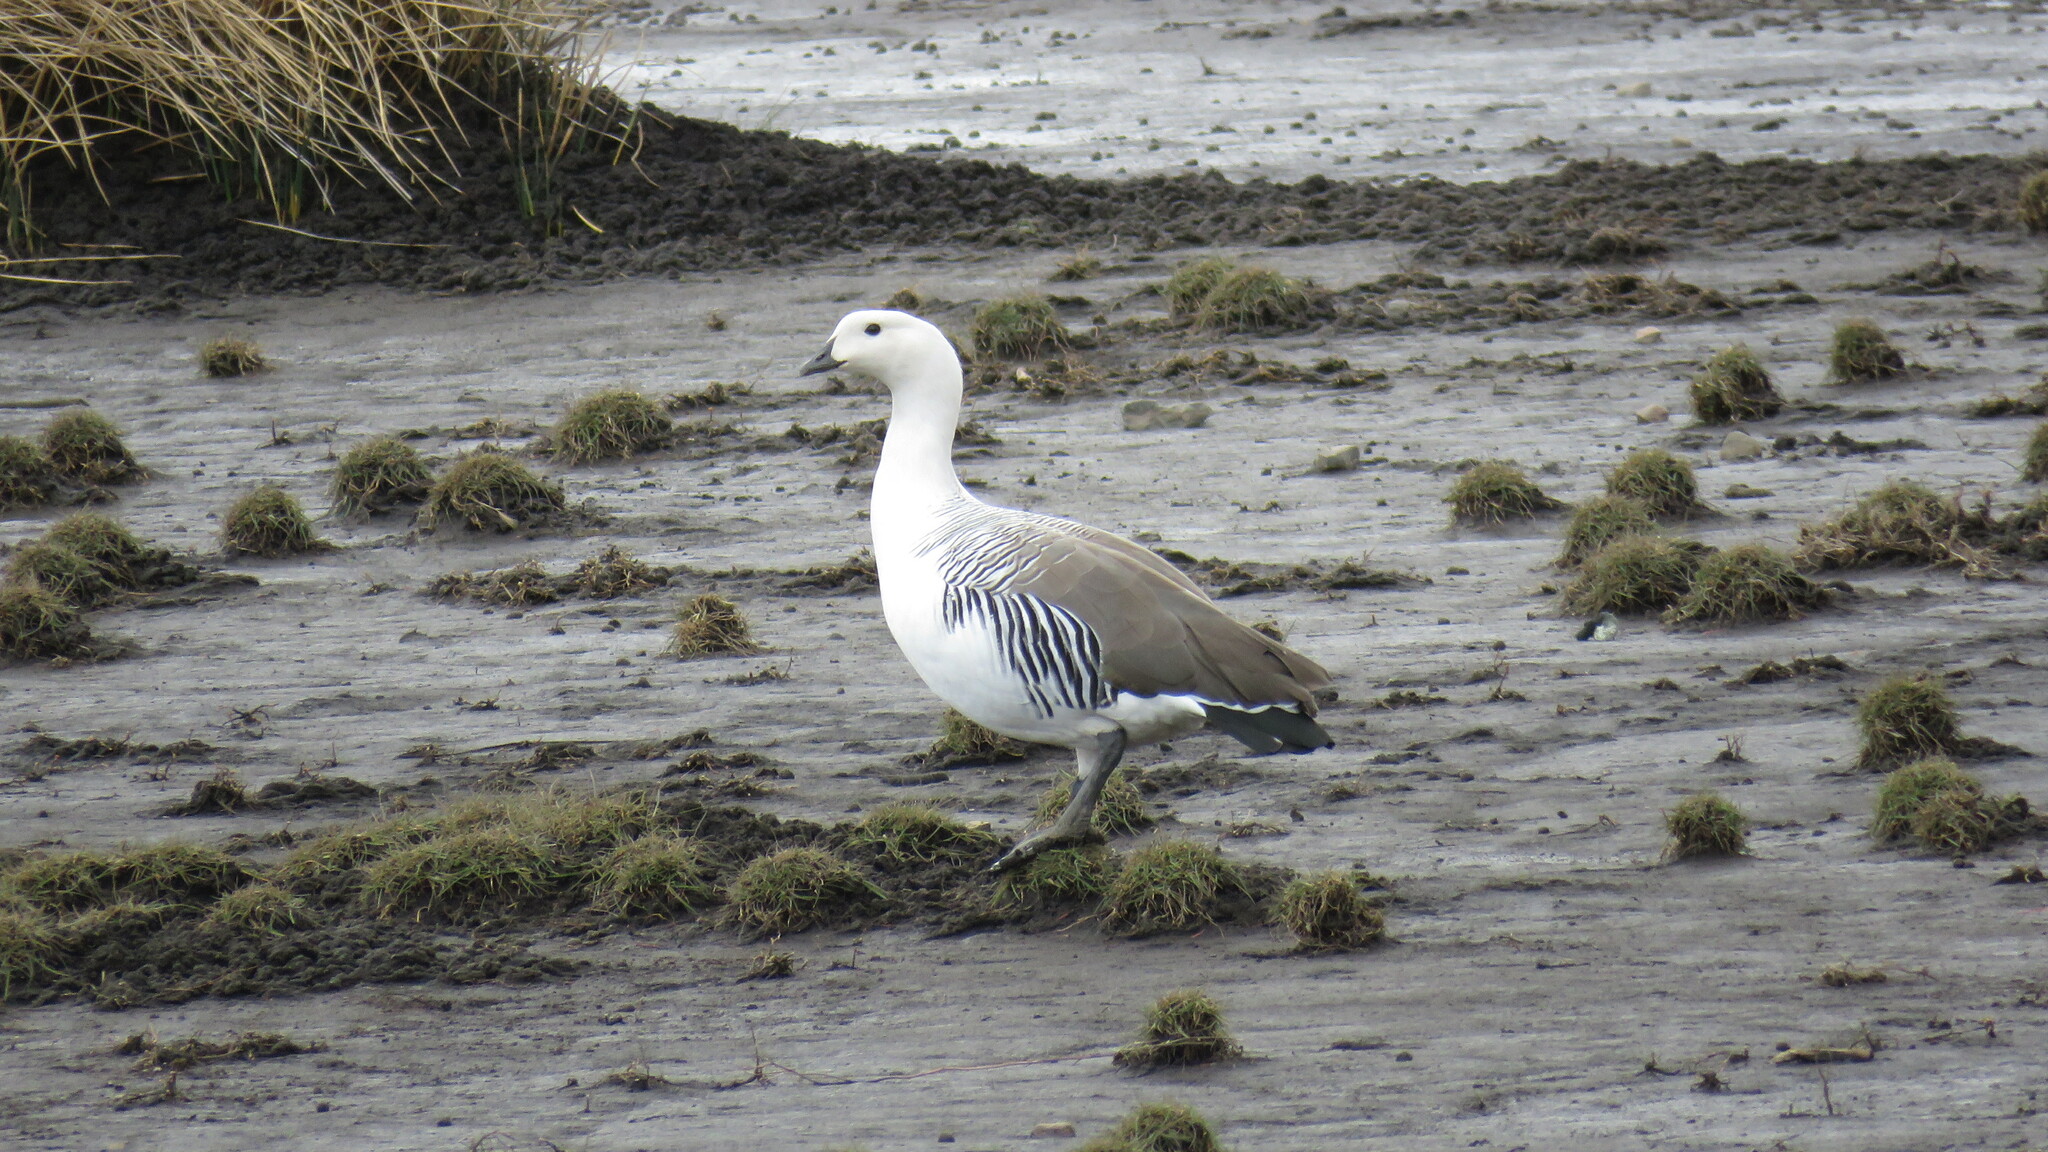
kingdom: Animalia
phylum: Chordata
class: Aves
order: Anseriformes
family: Anatidae
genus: Chloephaga
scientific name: Chloephaga picta
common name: Upland goose
